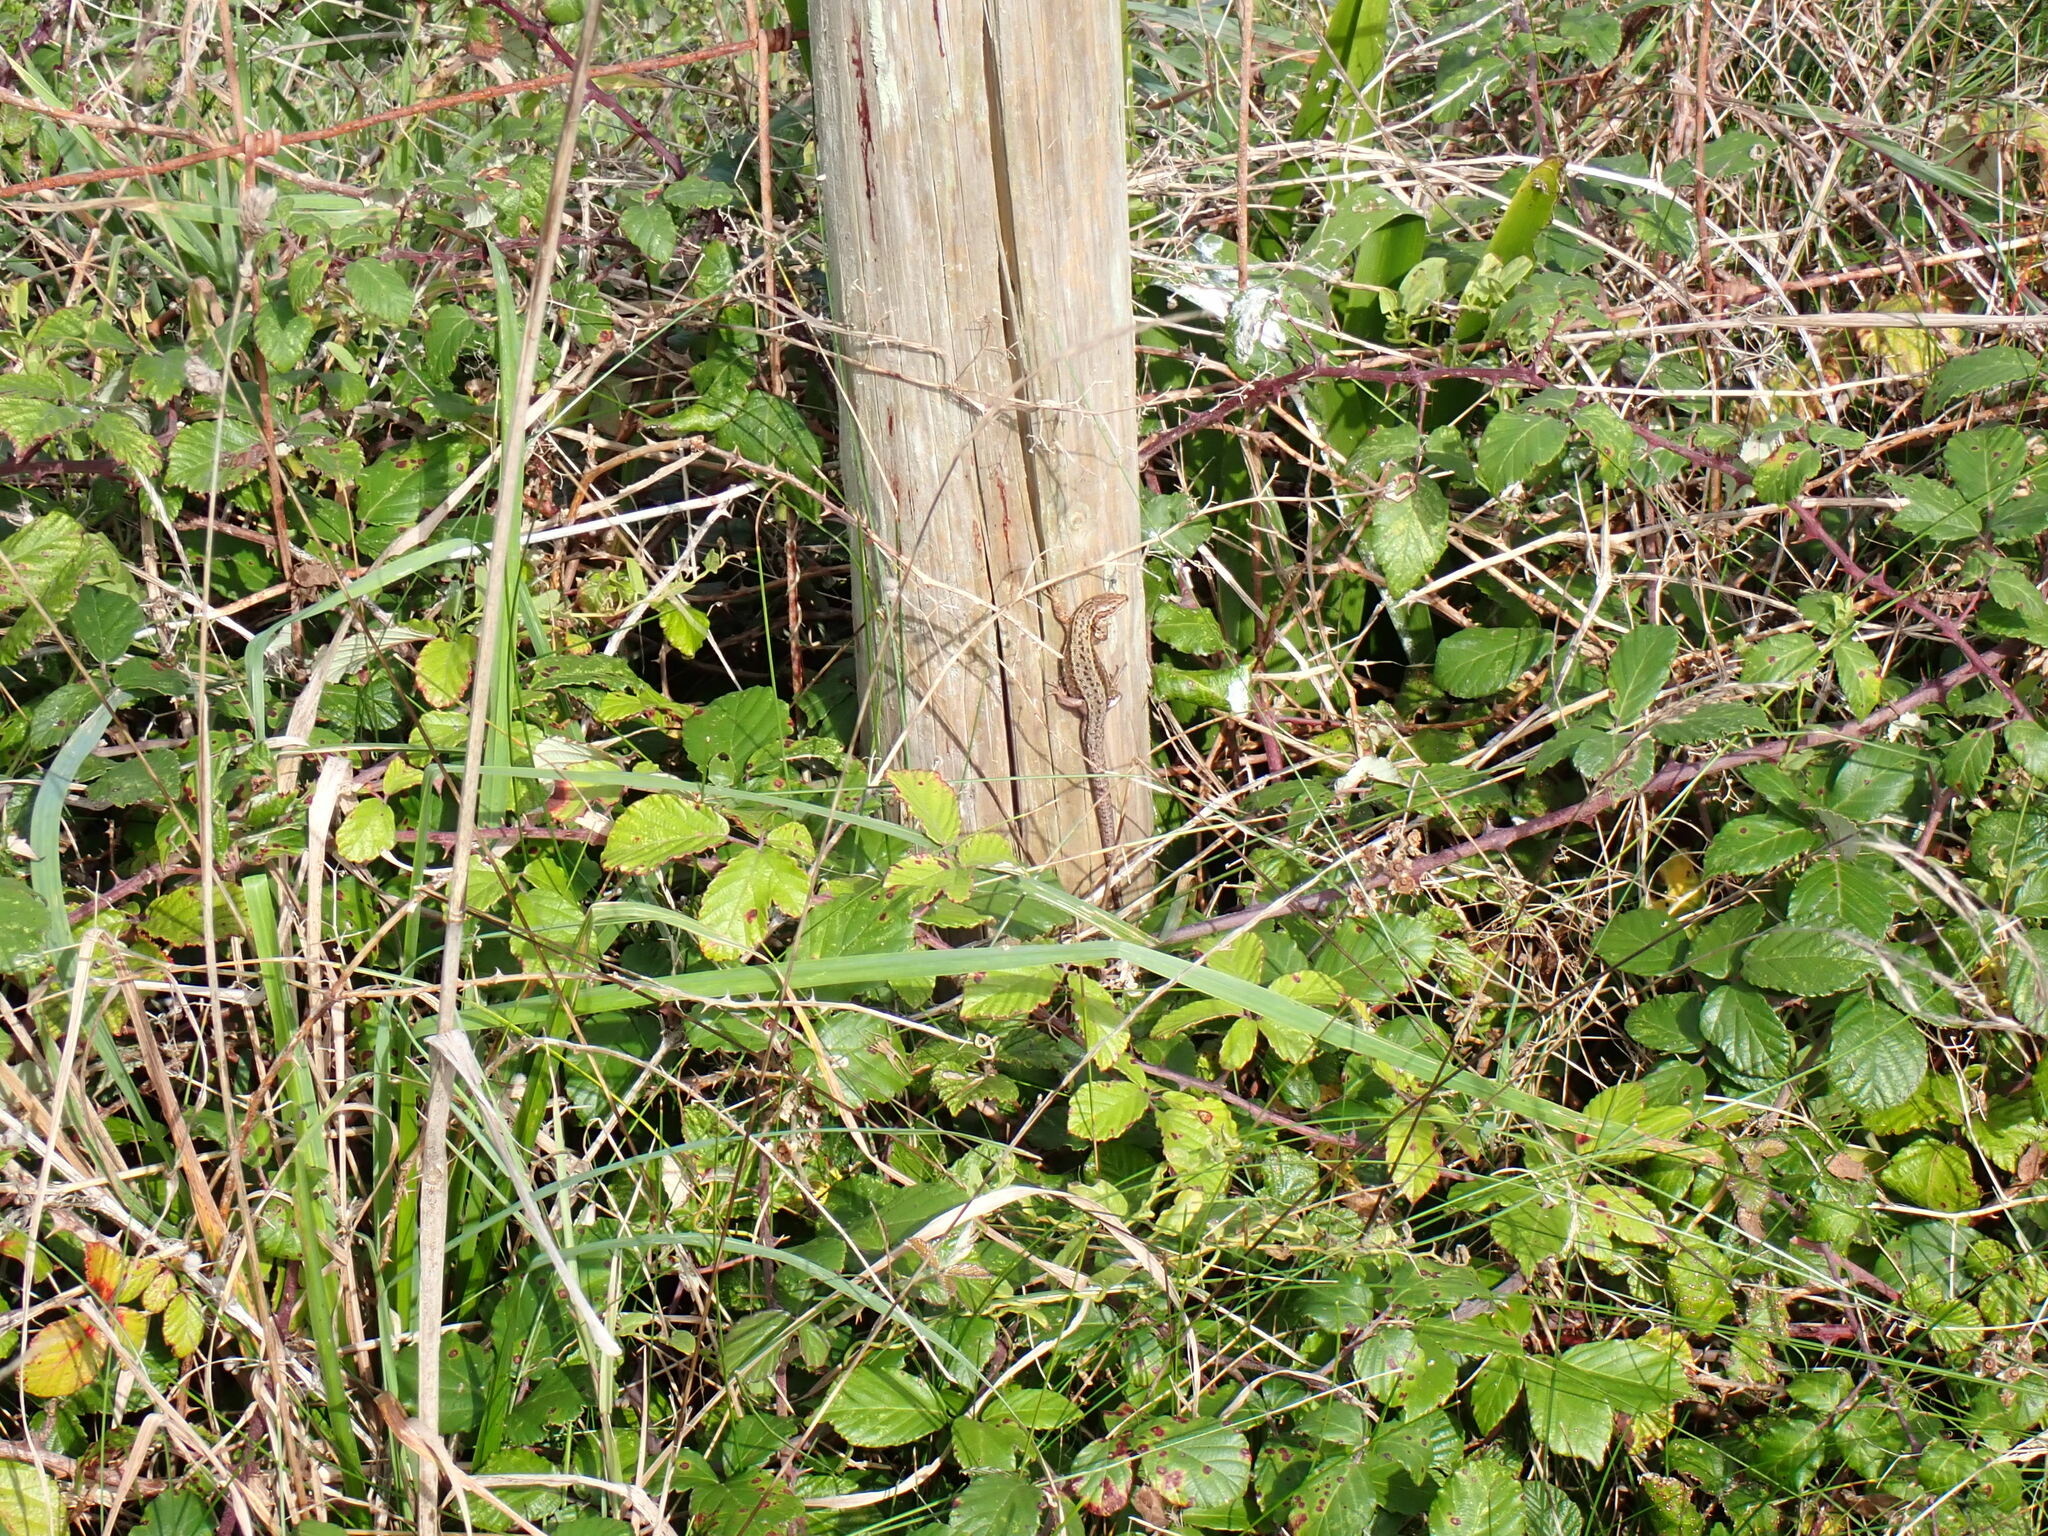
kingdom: Animalia
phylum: Chordata
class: Squamata
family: Lacertidae
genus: Zootoca
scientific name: Zootoca vivipara
